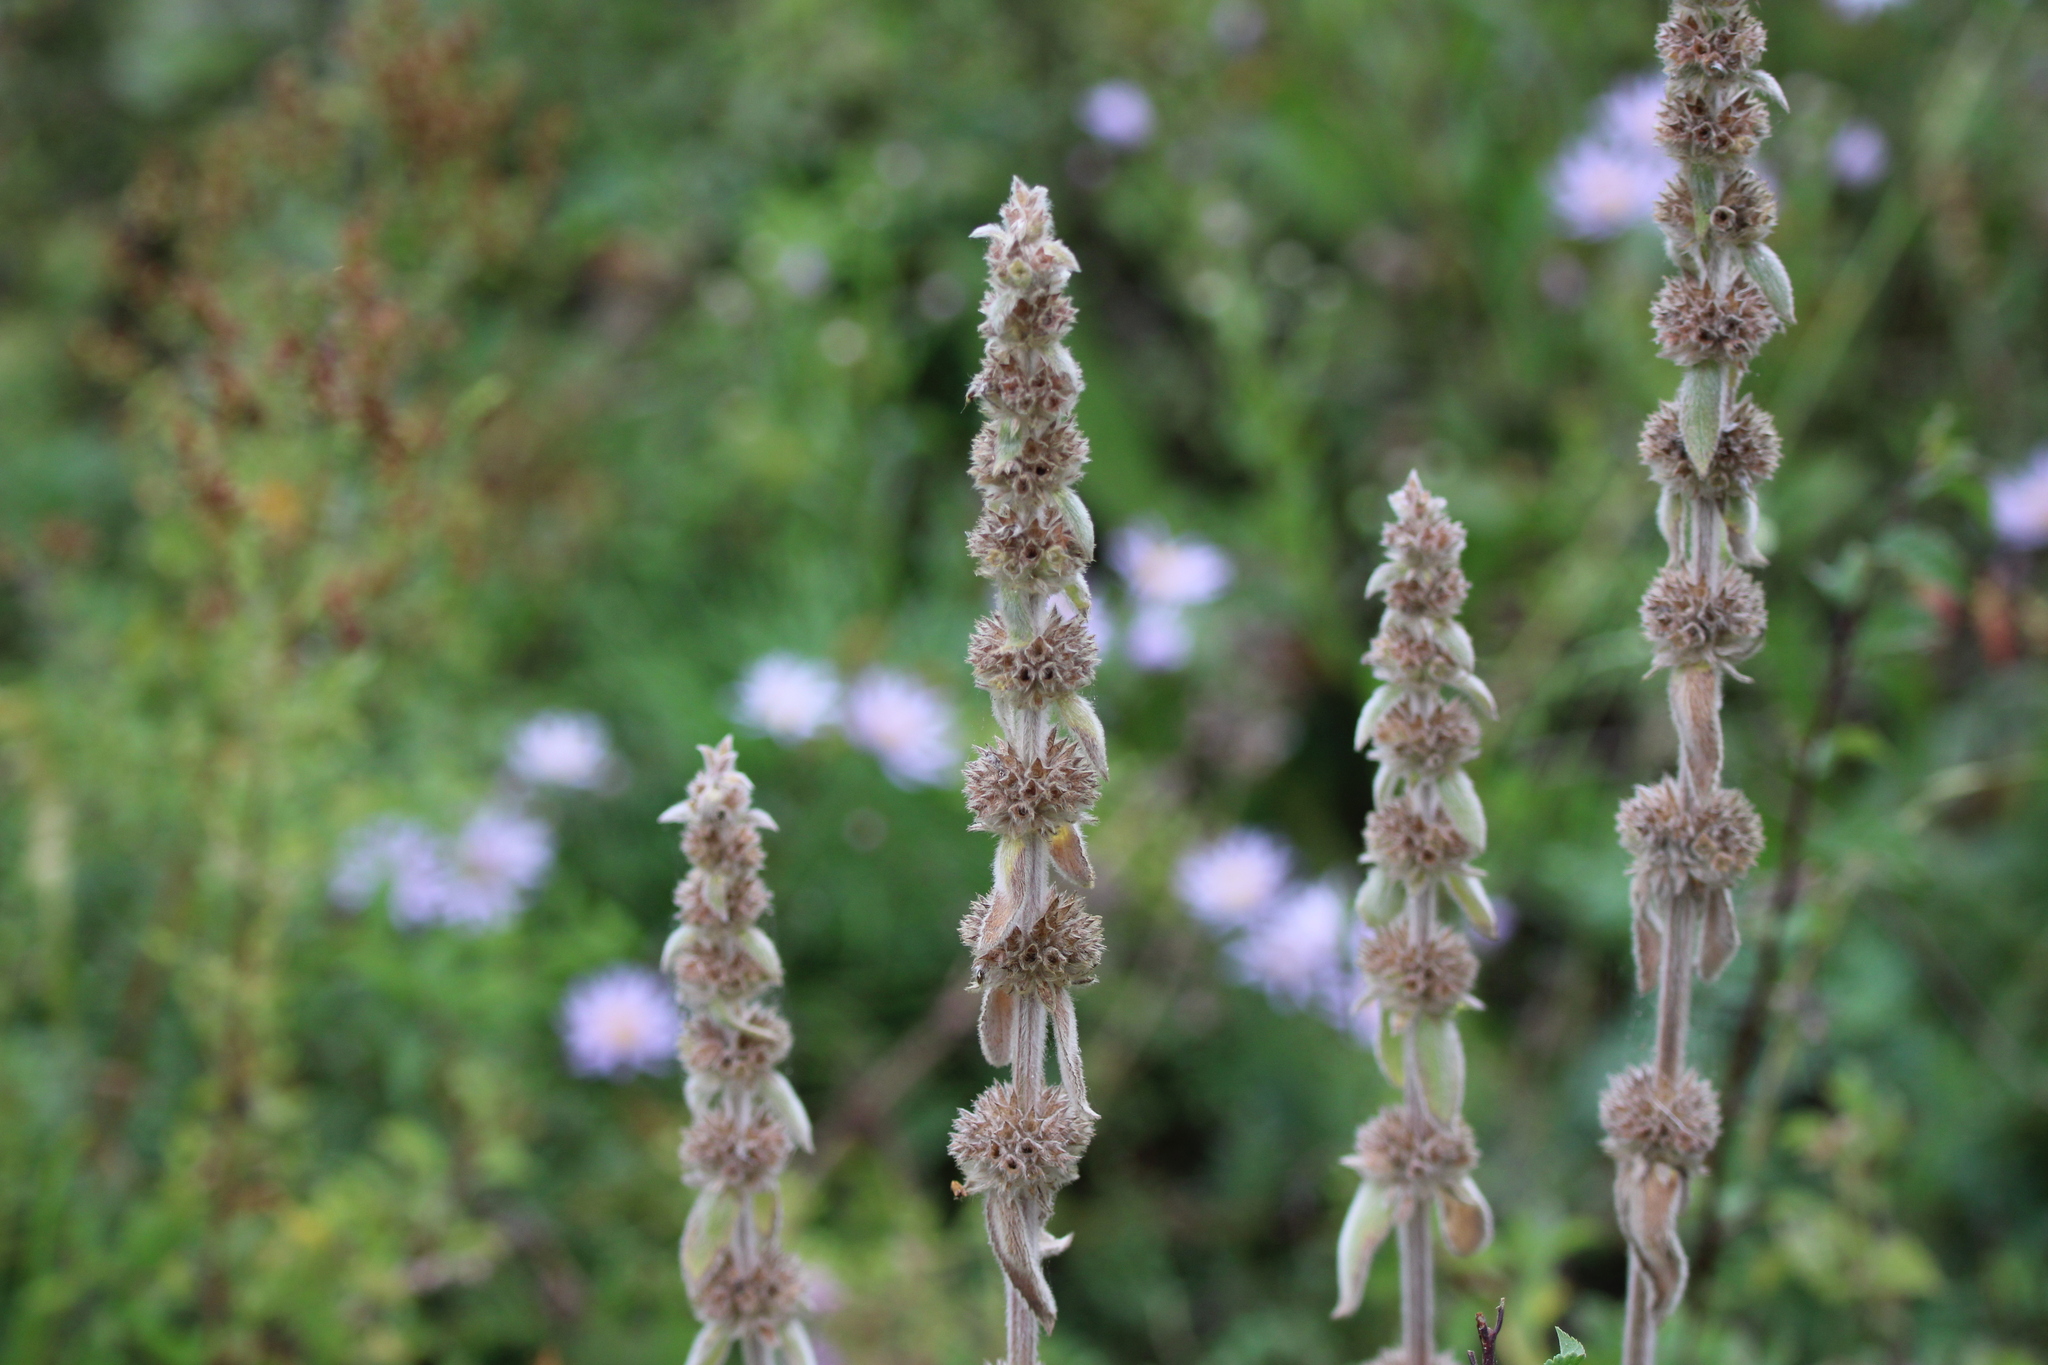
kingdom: Plantae
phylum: Tracheophyta
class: Magnoliopsida
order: Lamiales
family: Lamiaceae
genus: Stachys
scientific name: Stachys germanica
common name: Downy woundwort
